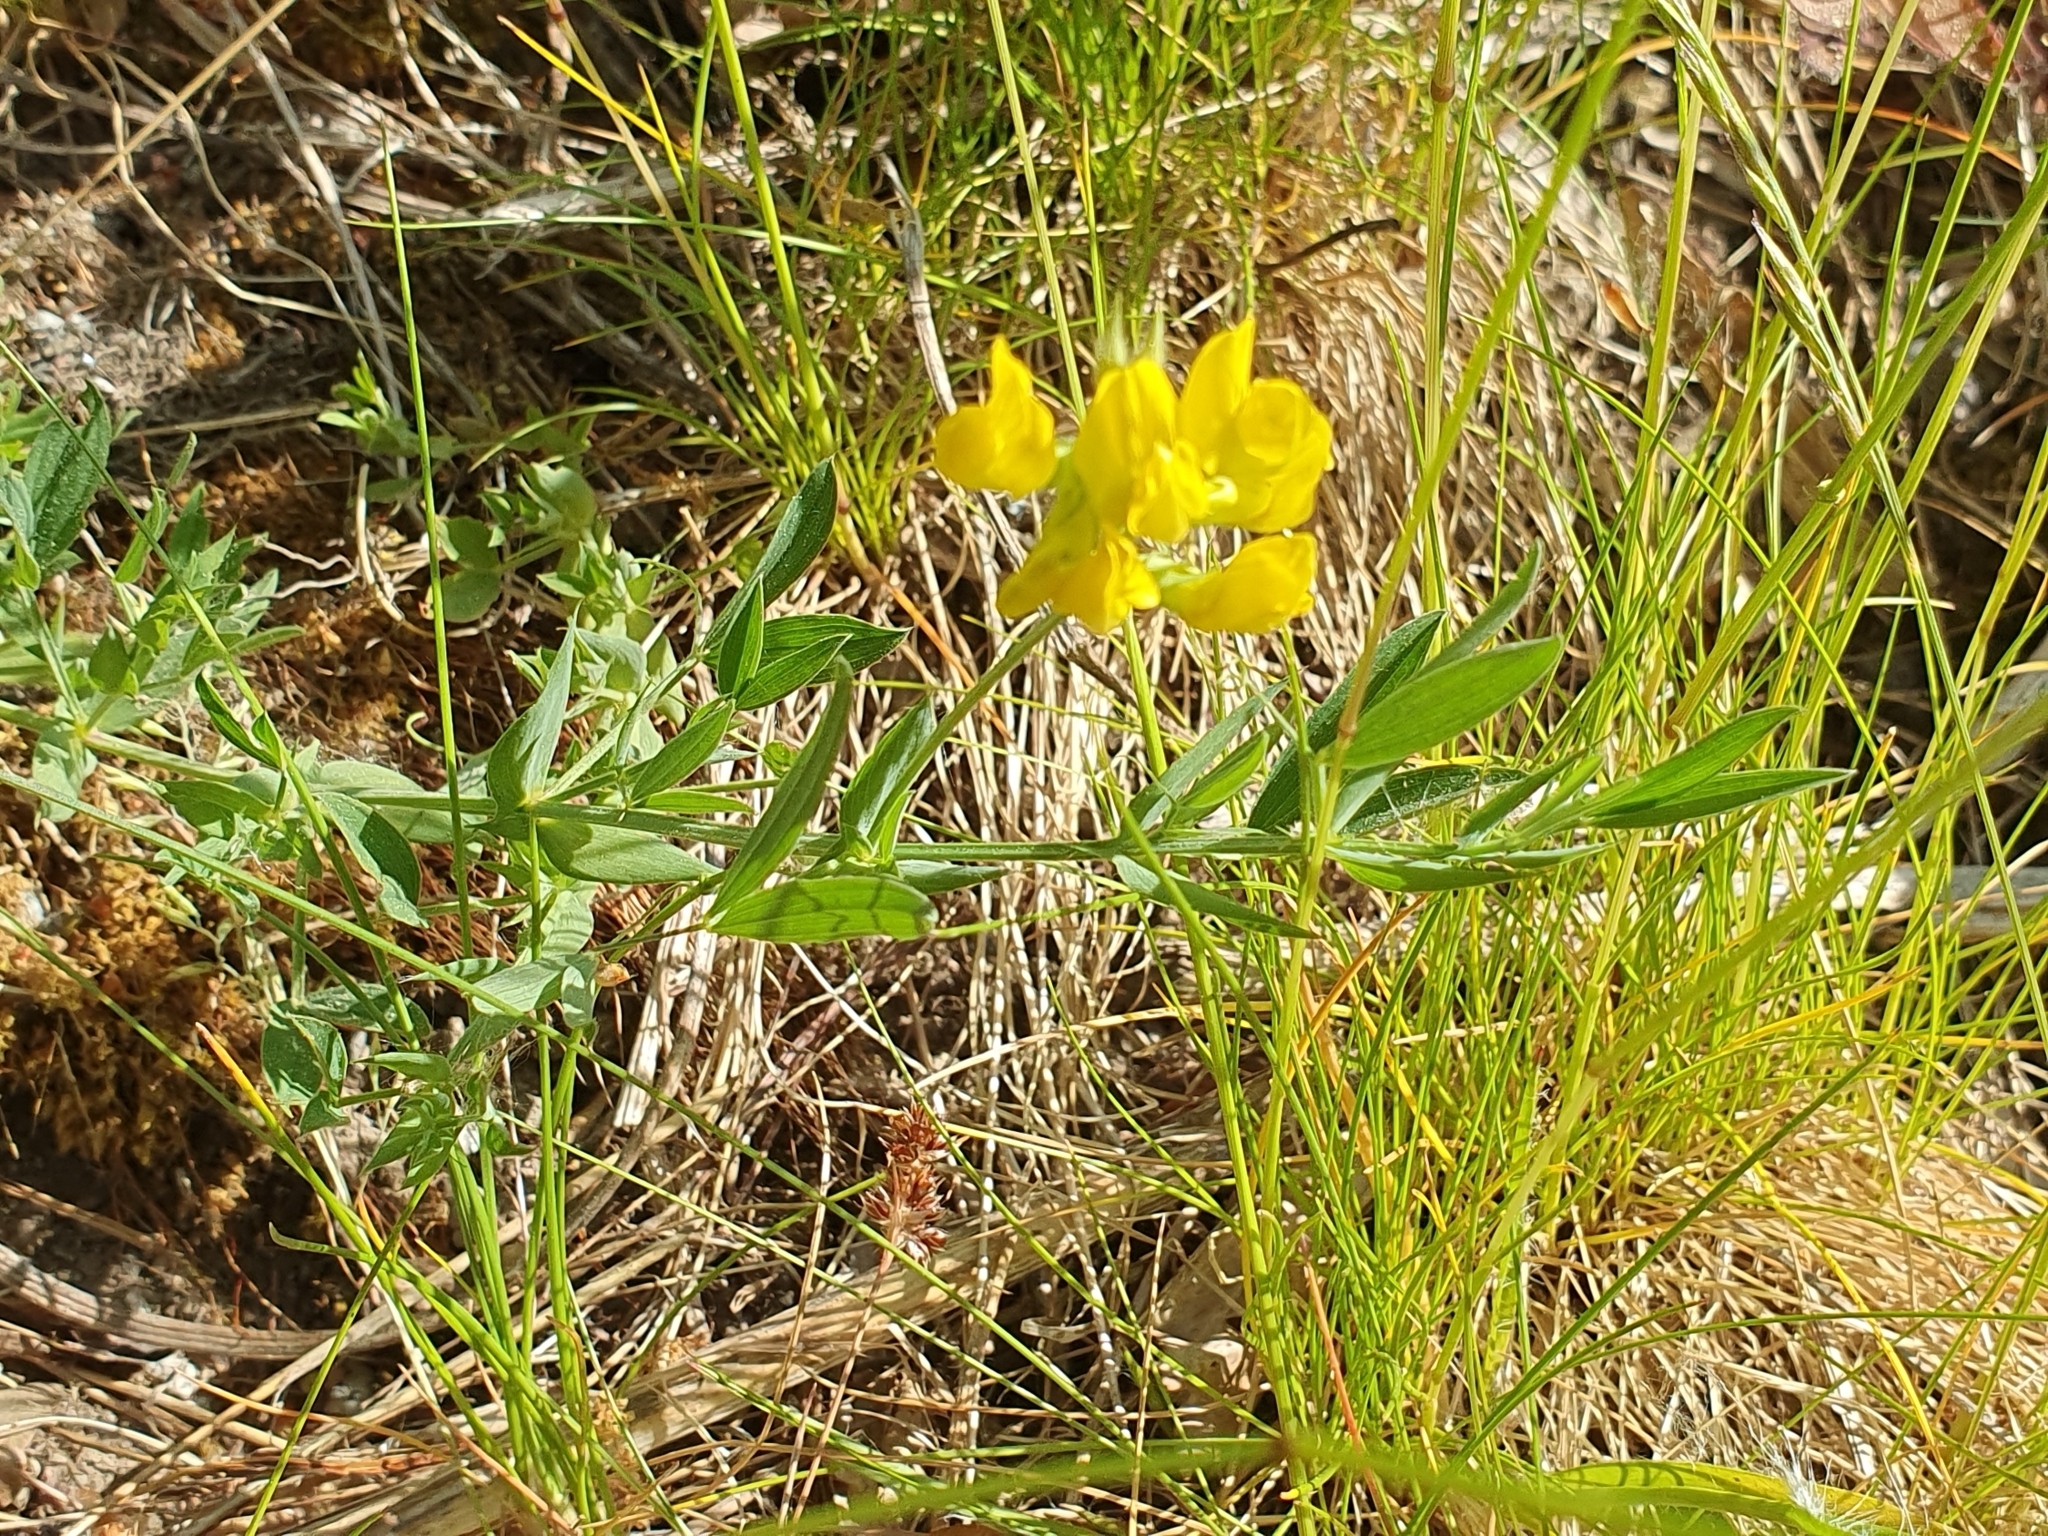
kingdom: Plantae
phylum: Tracheophyta
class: Magnoliopsida
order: Fabales
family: Fabaceae
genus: Lathyrus
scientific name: Lathyrus pratensis
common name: Meadow vetchling
